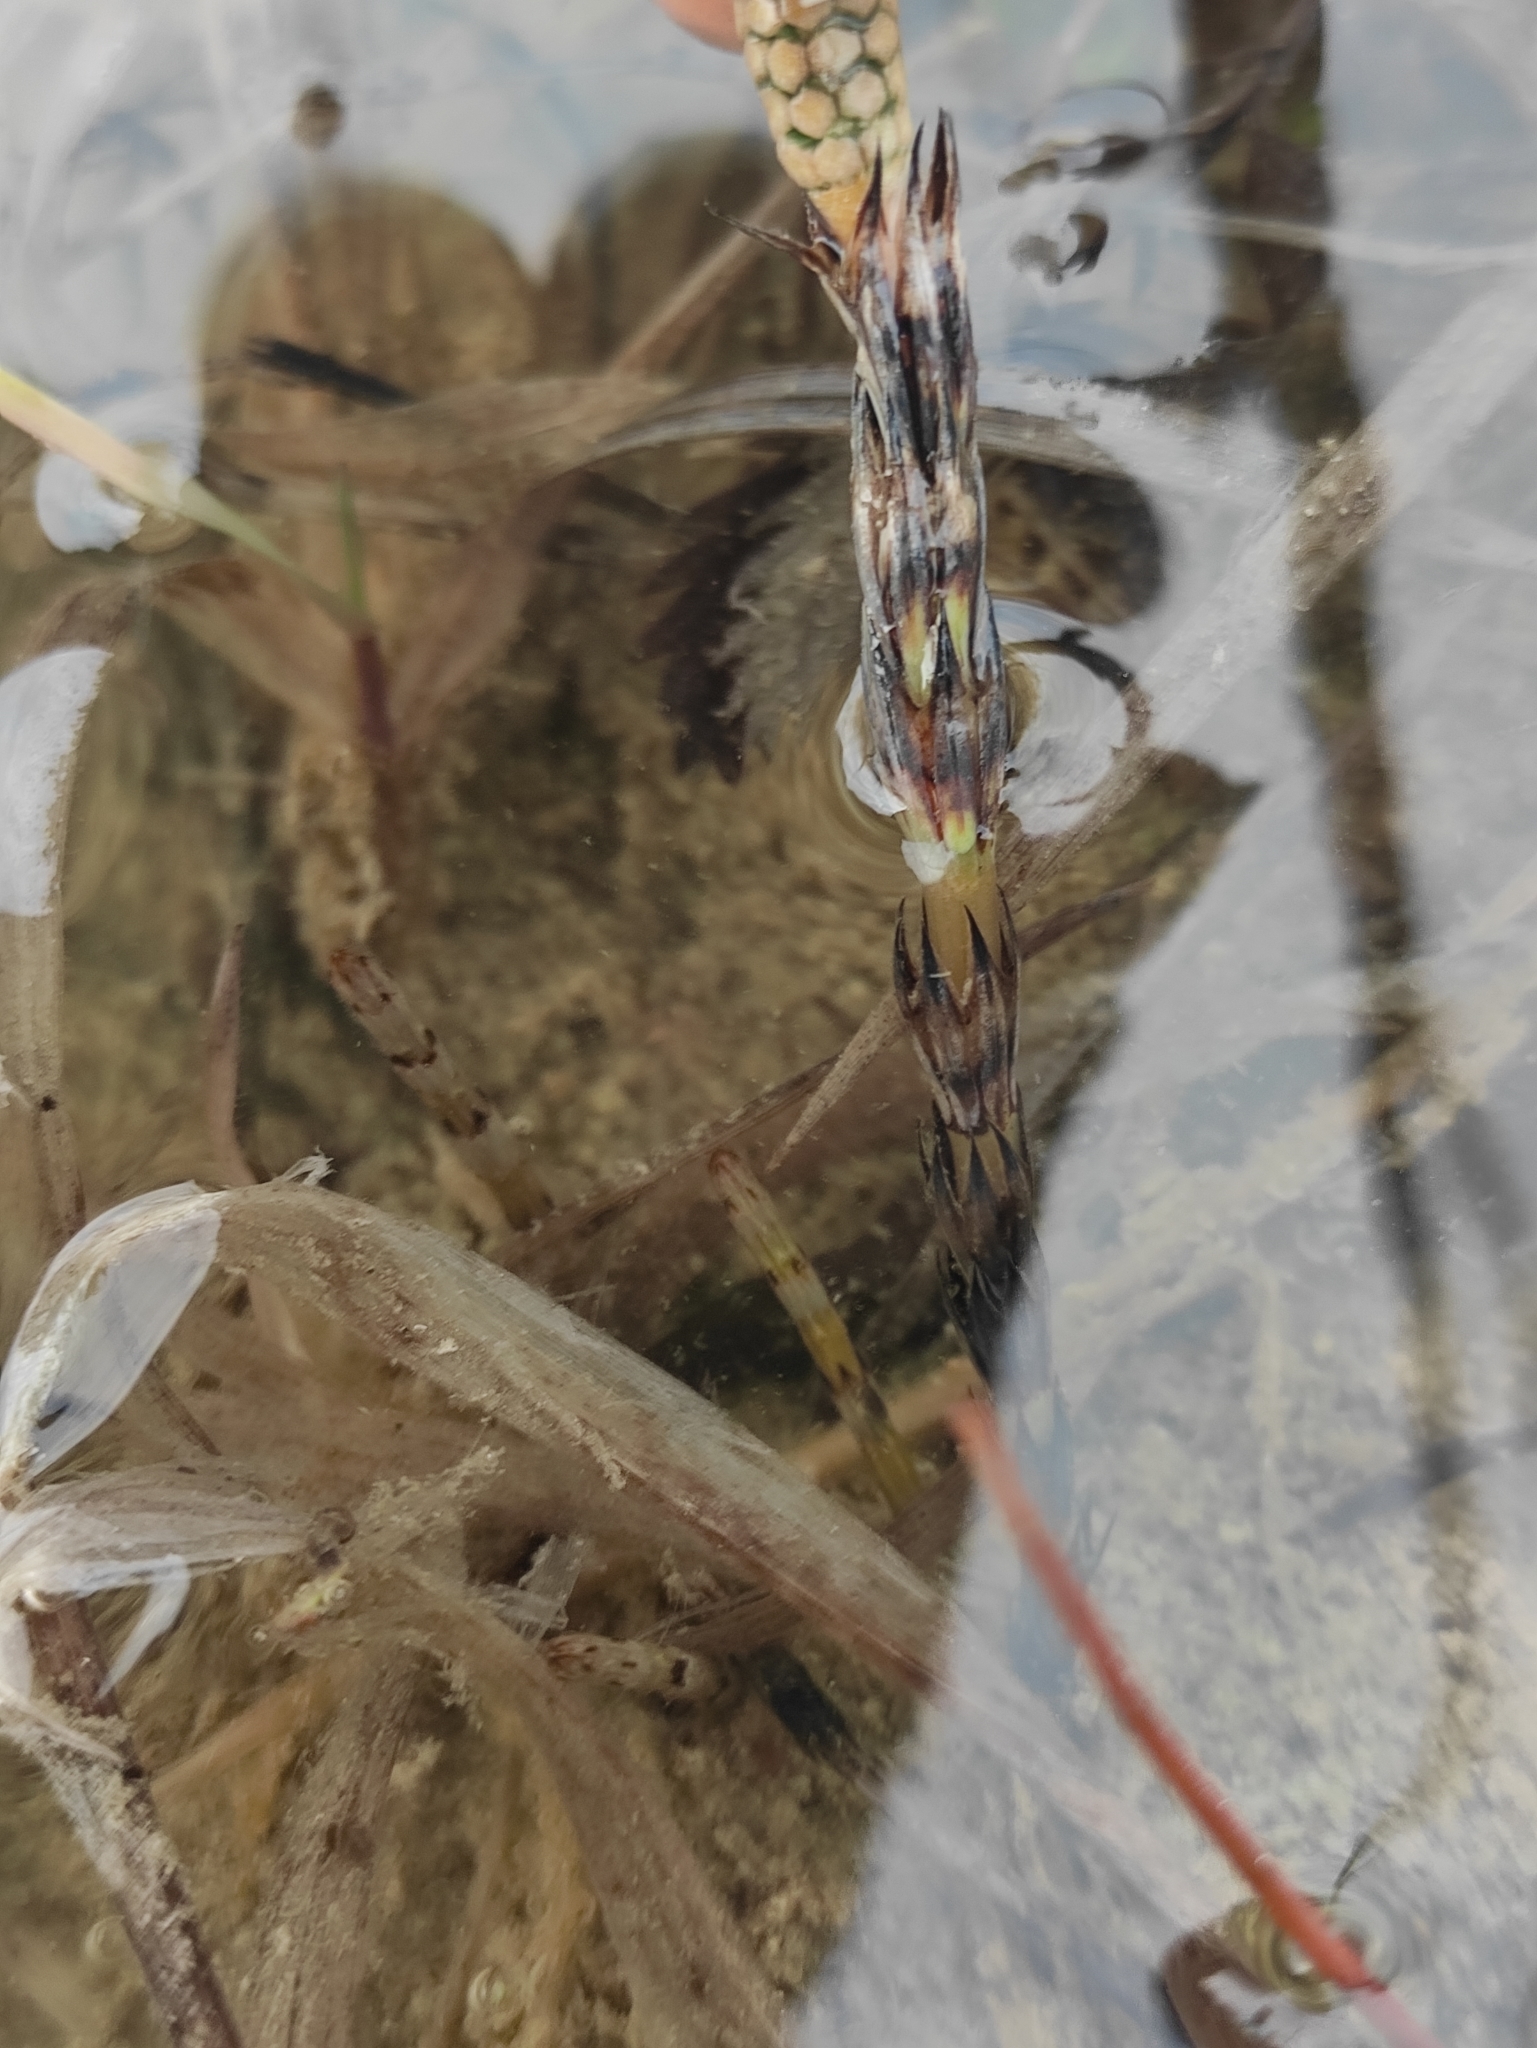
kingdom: Plantae
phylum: Tracheophyta
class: Polypodiopsida
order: Equisetales
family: Equisetaceae
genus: Equisetum
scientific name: Equisetum arvense
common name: Field horsetail
